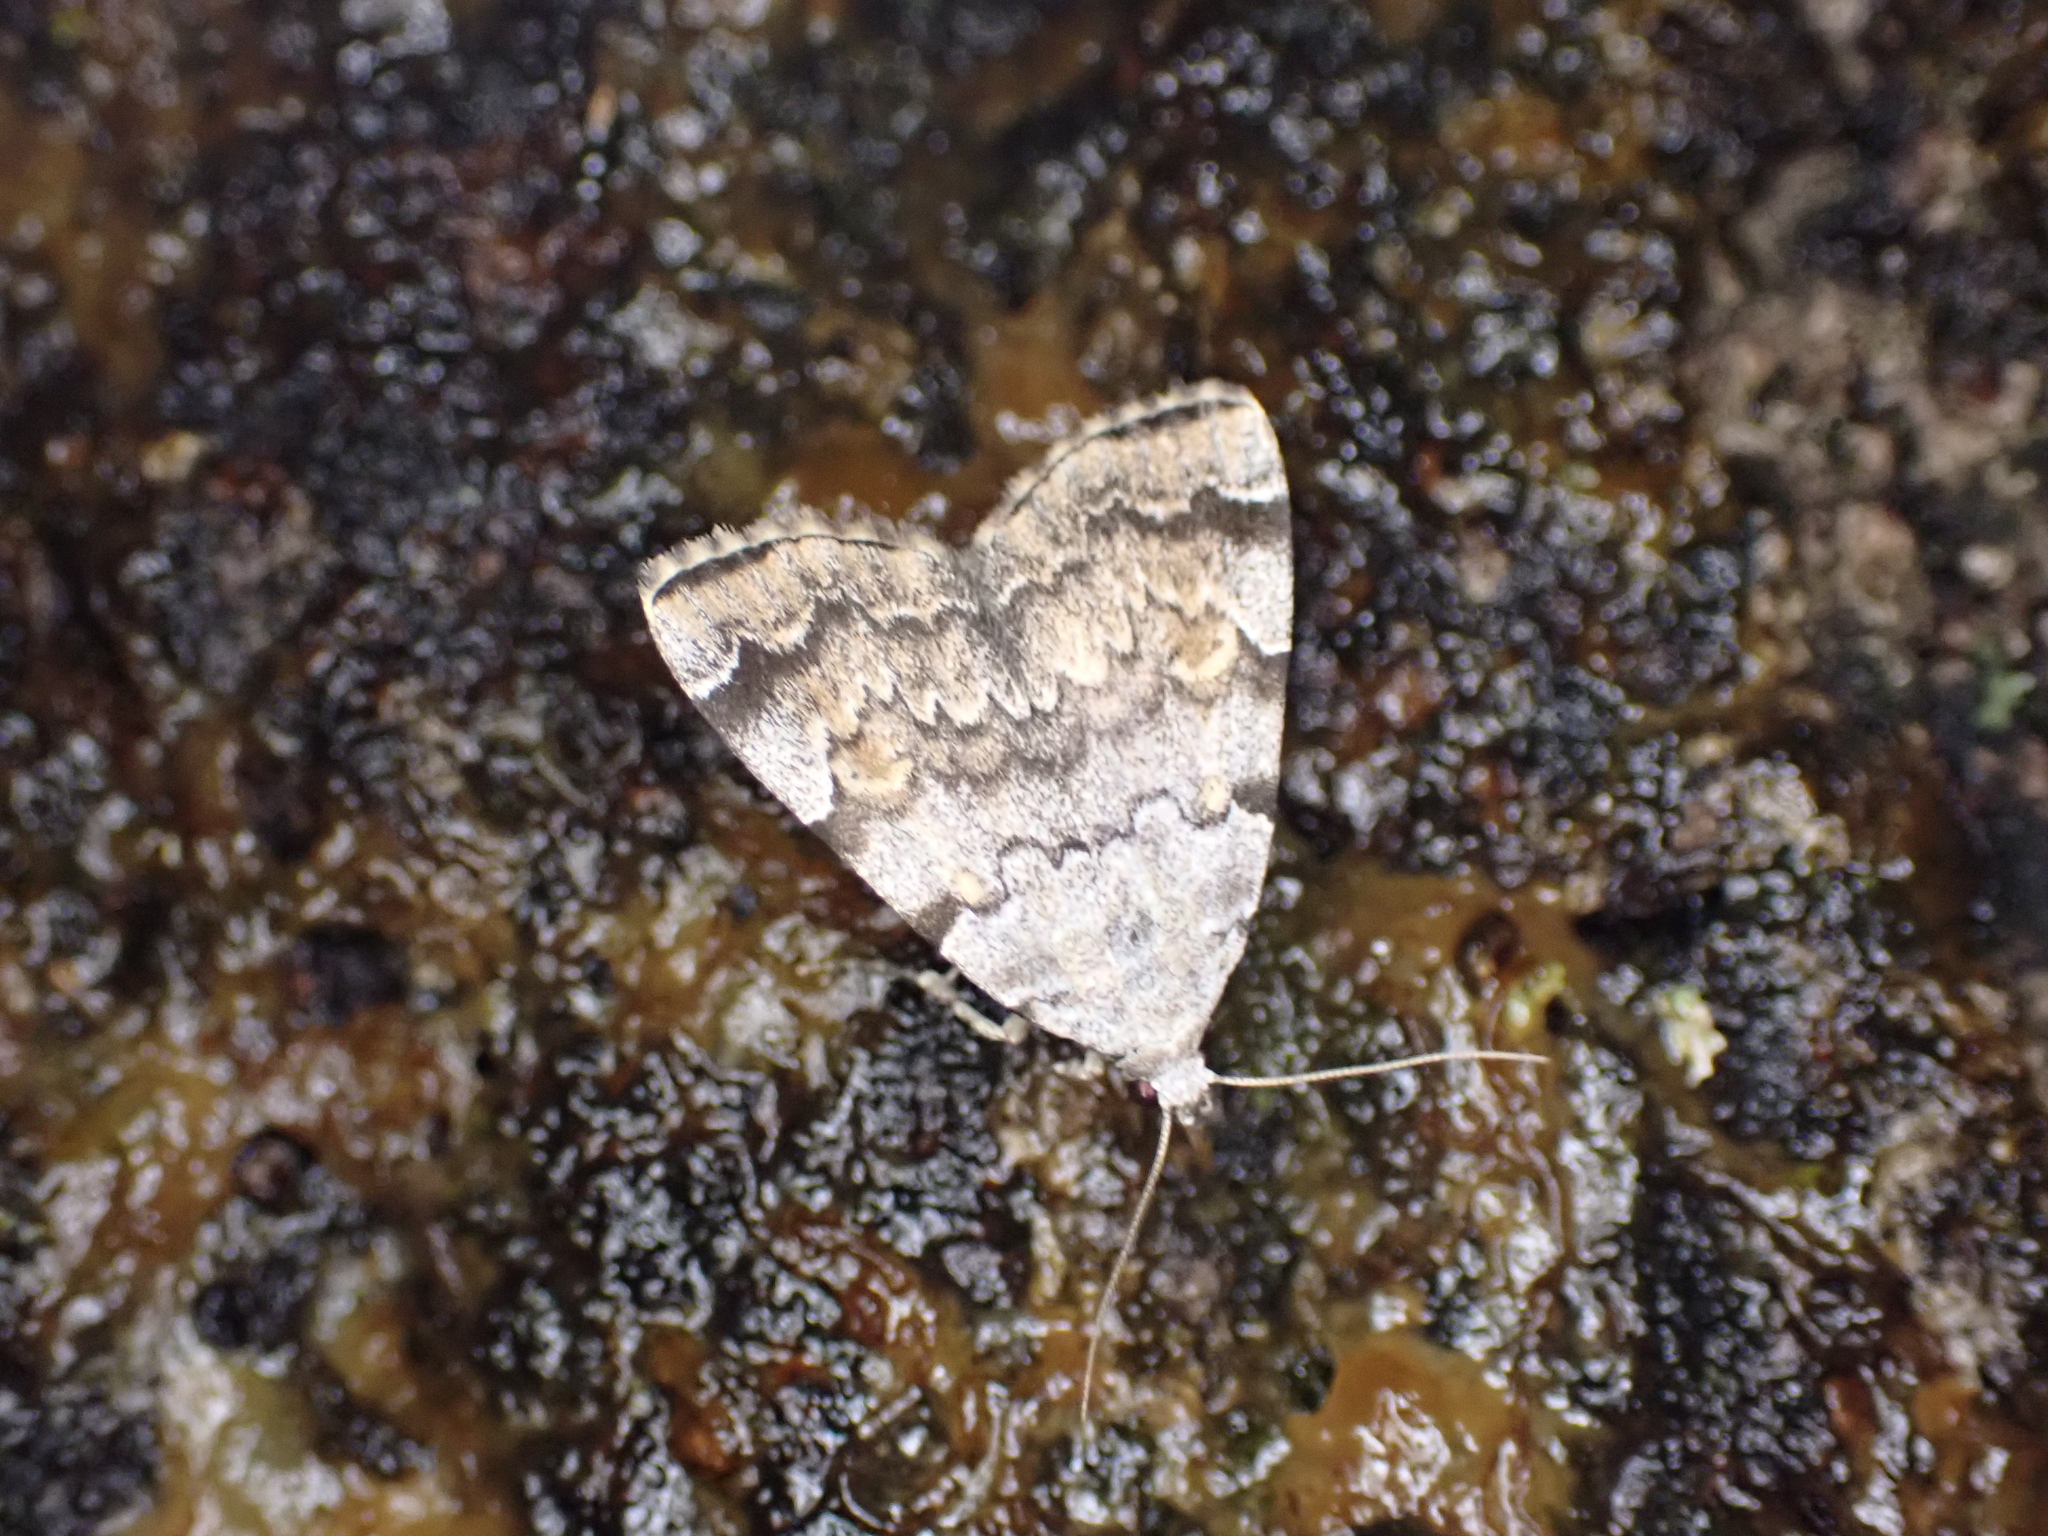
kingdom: Animalia
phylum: Arthropoda
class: Insecta
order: Lepidoptera
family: Erebidae
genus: Idia
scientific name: Idia americalis
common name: American idia moth
